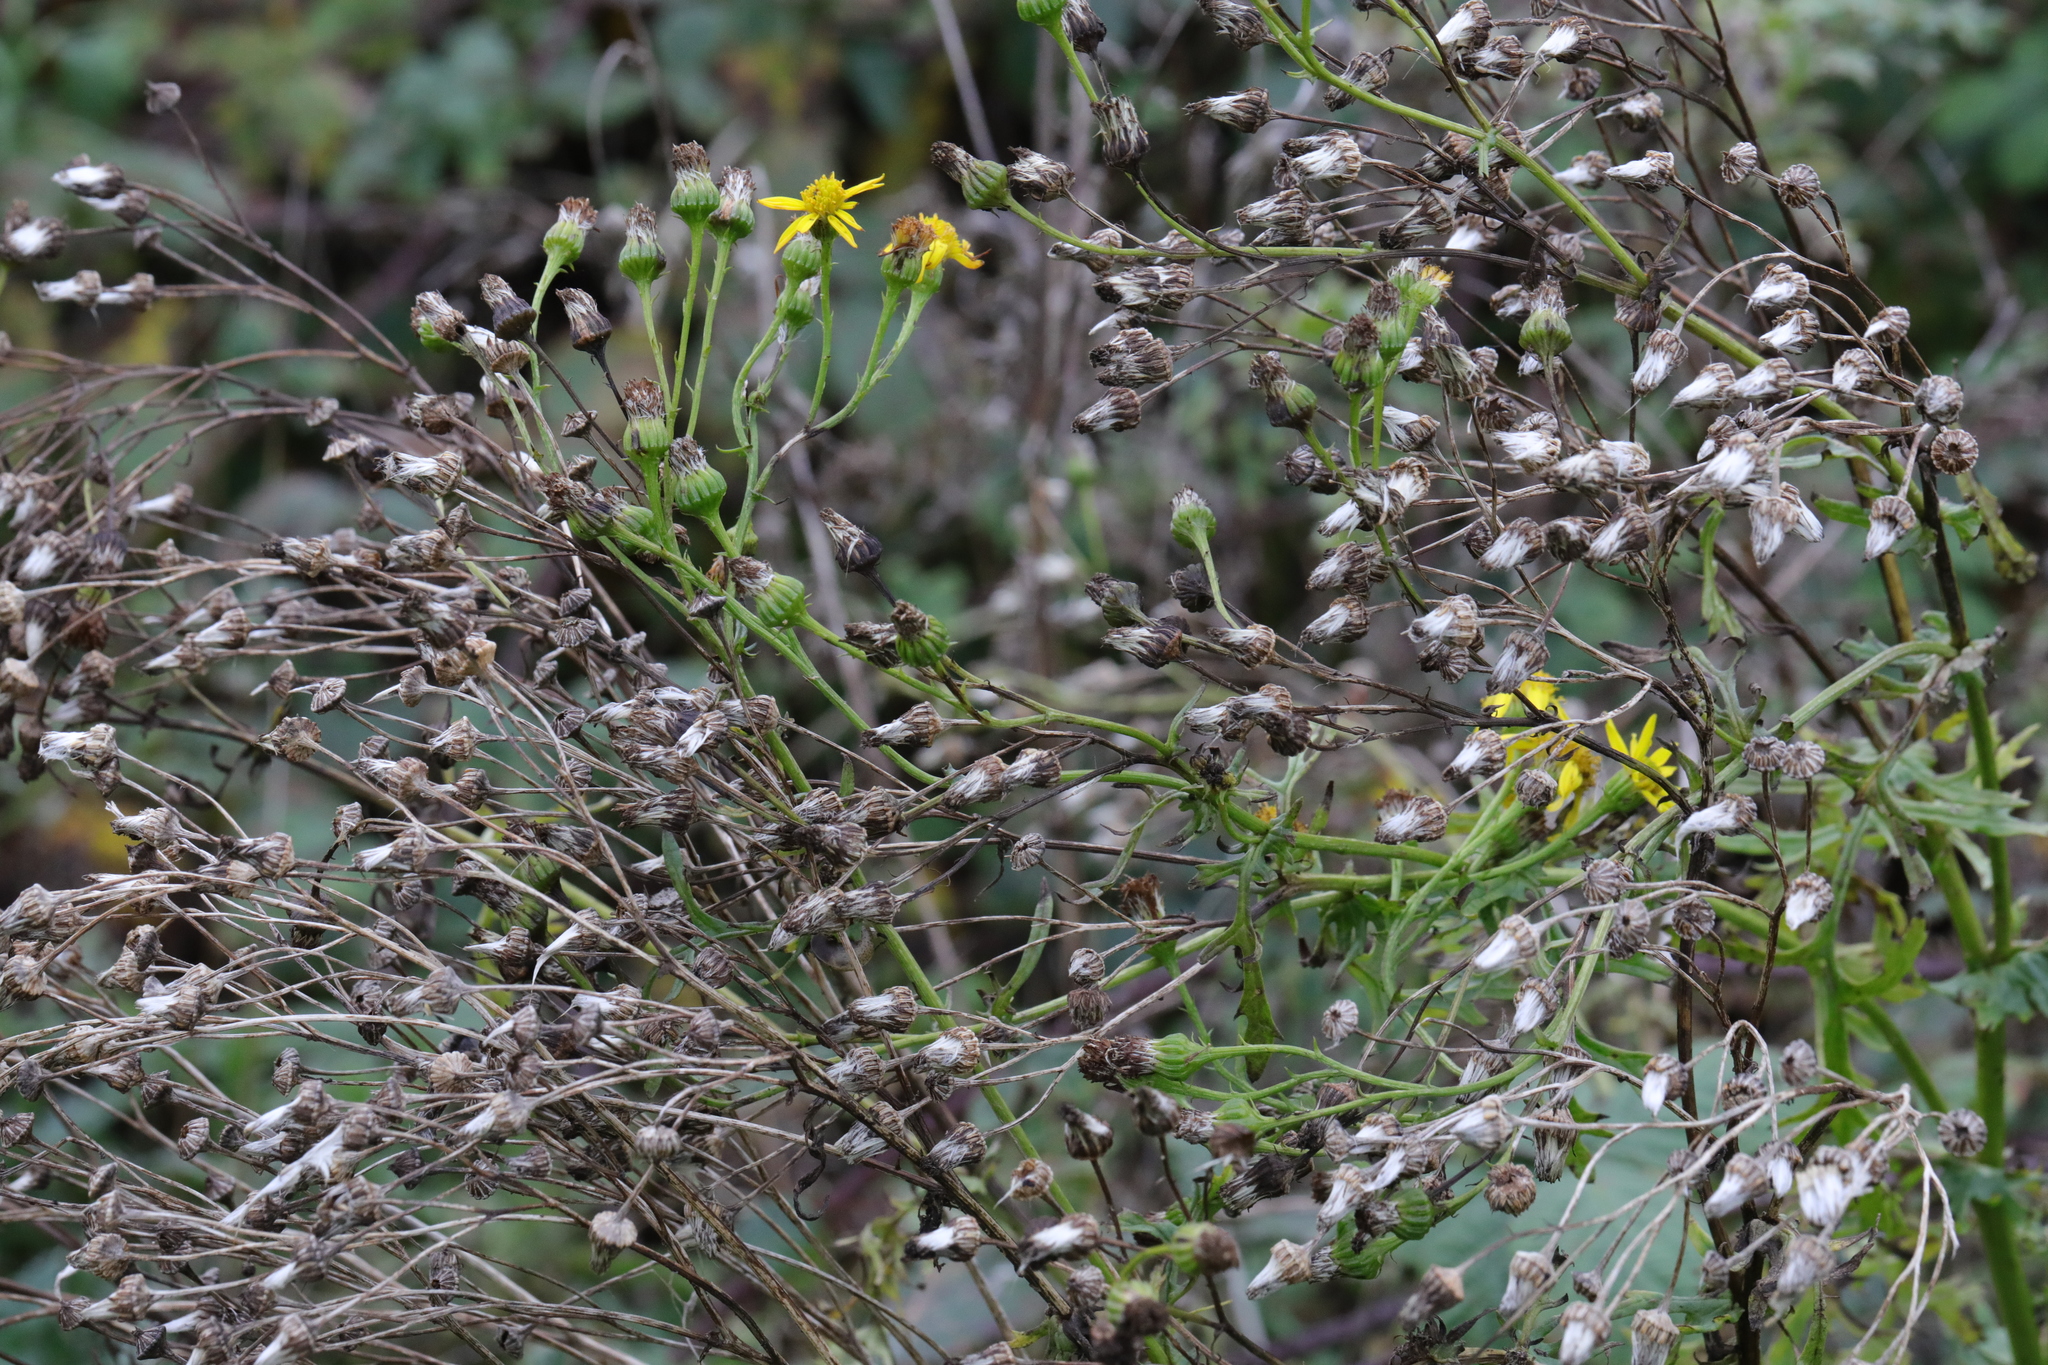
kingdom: Plantae
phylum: Tracheophyta
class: Magnoliopsida
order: Asterales
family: Asteraceae
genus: Jacobaea
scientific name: Jacobaea vulgaris
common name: Stinking willie
